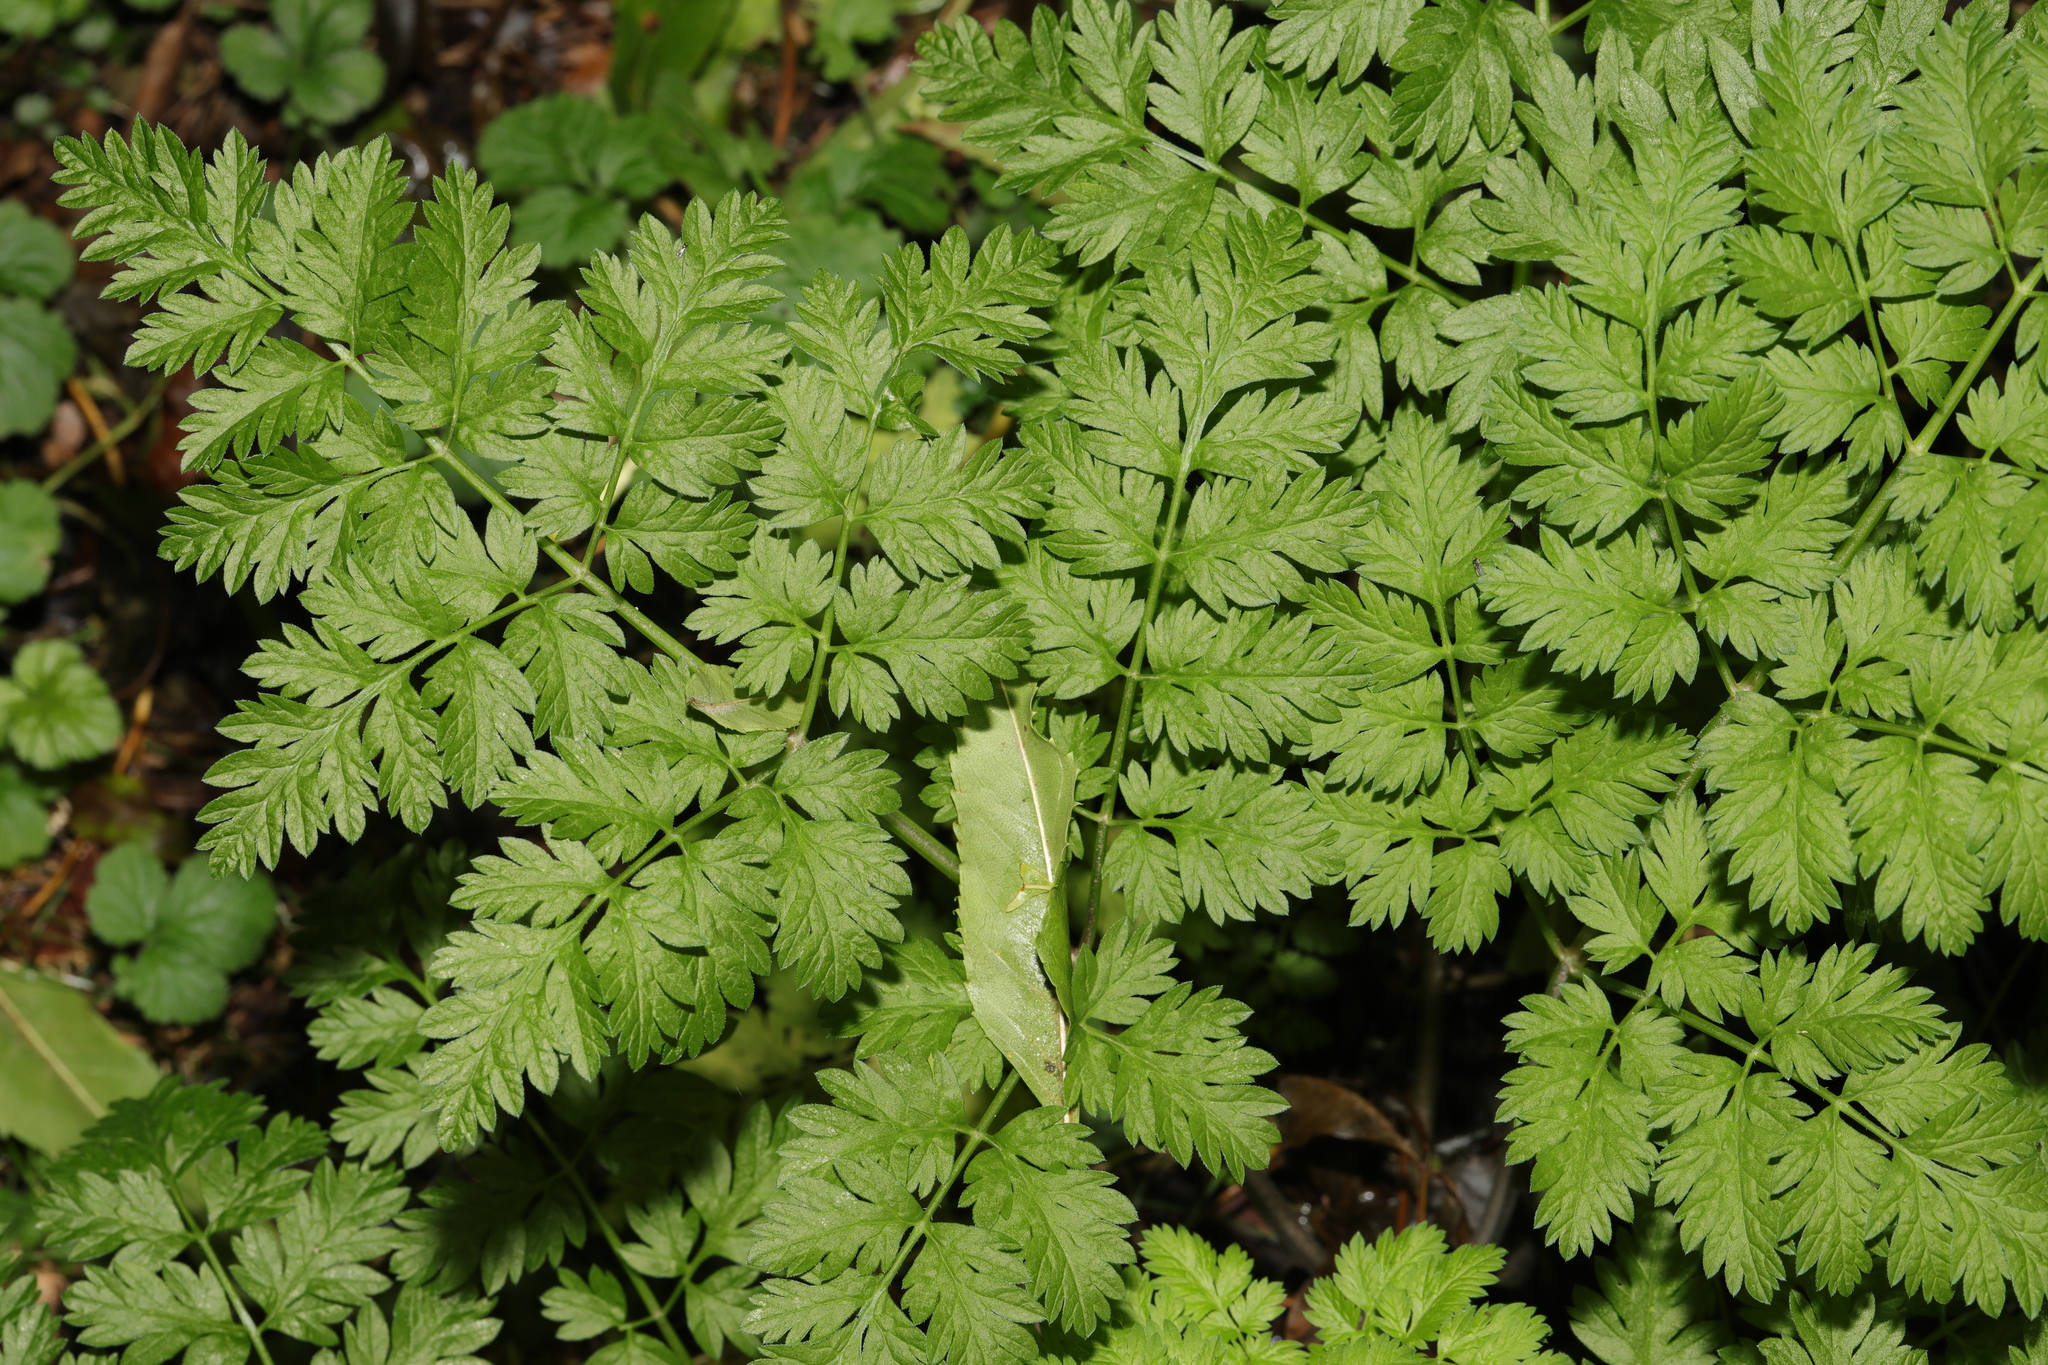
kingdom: Plantae
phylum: Tracheophyta
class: Magnoliopsida
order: Apiales
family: Apiaceae
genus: Anthriscus
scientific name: Anthriscus sylvestris
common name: Cow parsley
